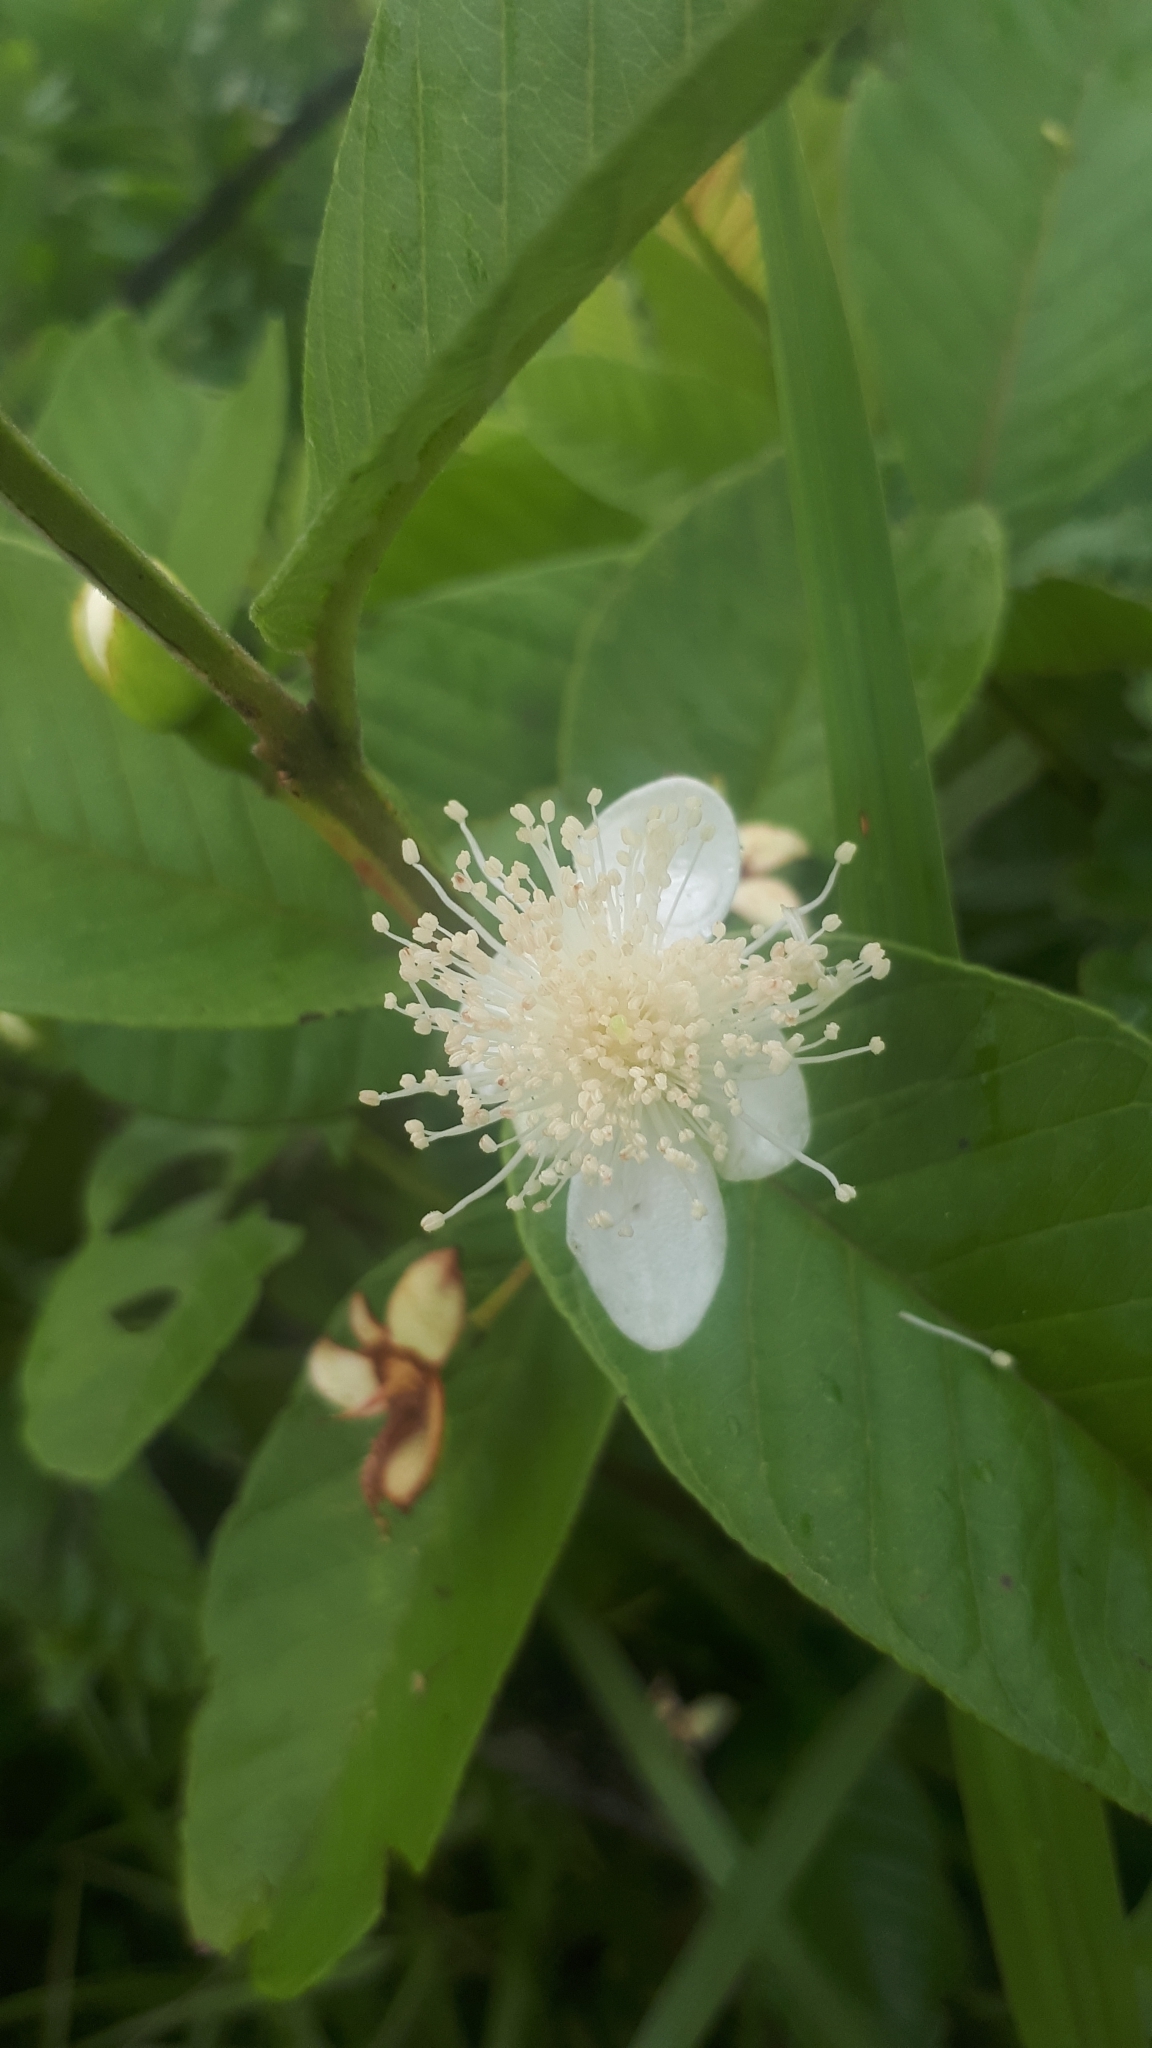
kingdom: Plantae
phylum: Tracheophyta
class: Magnoliopsida
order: Myrtales
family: Myrtaceae
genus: Psidium
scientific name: Psidium guajava
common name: Guava
